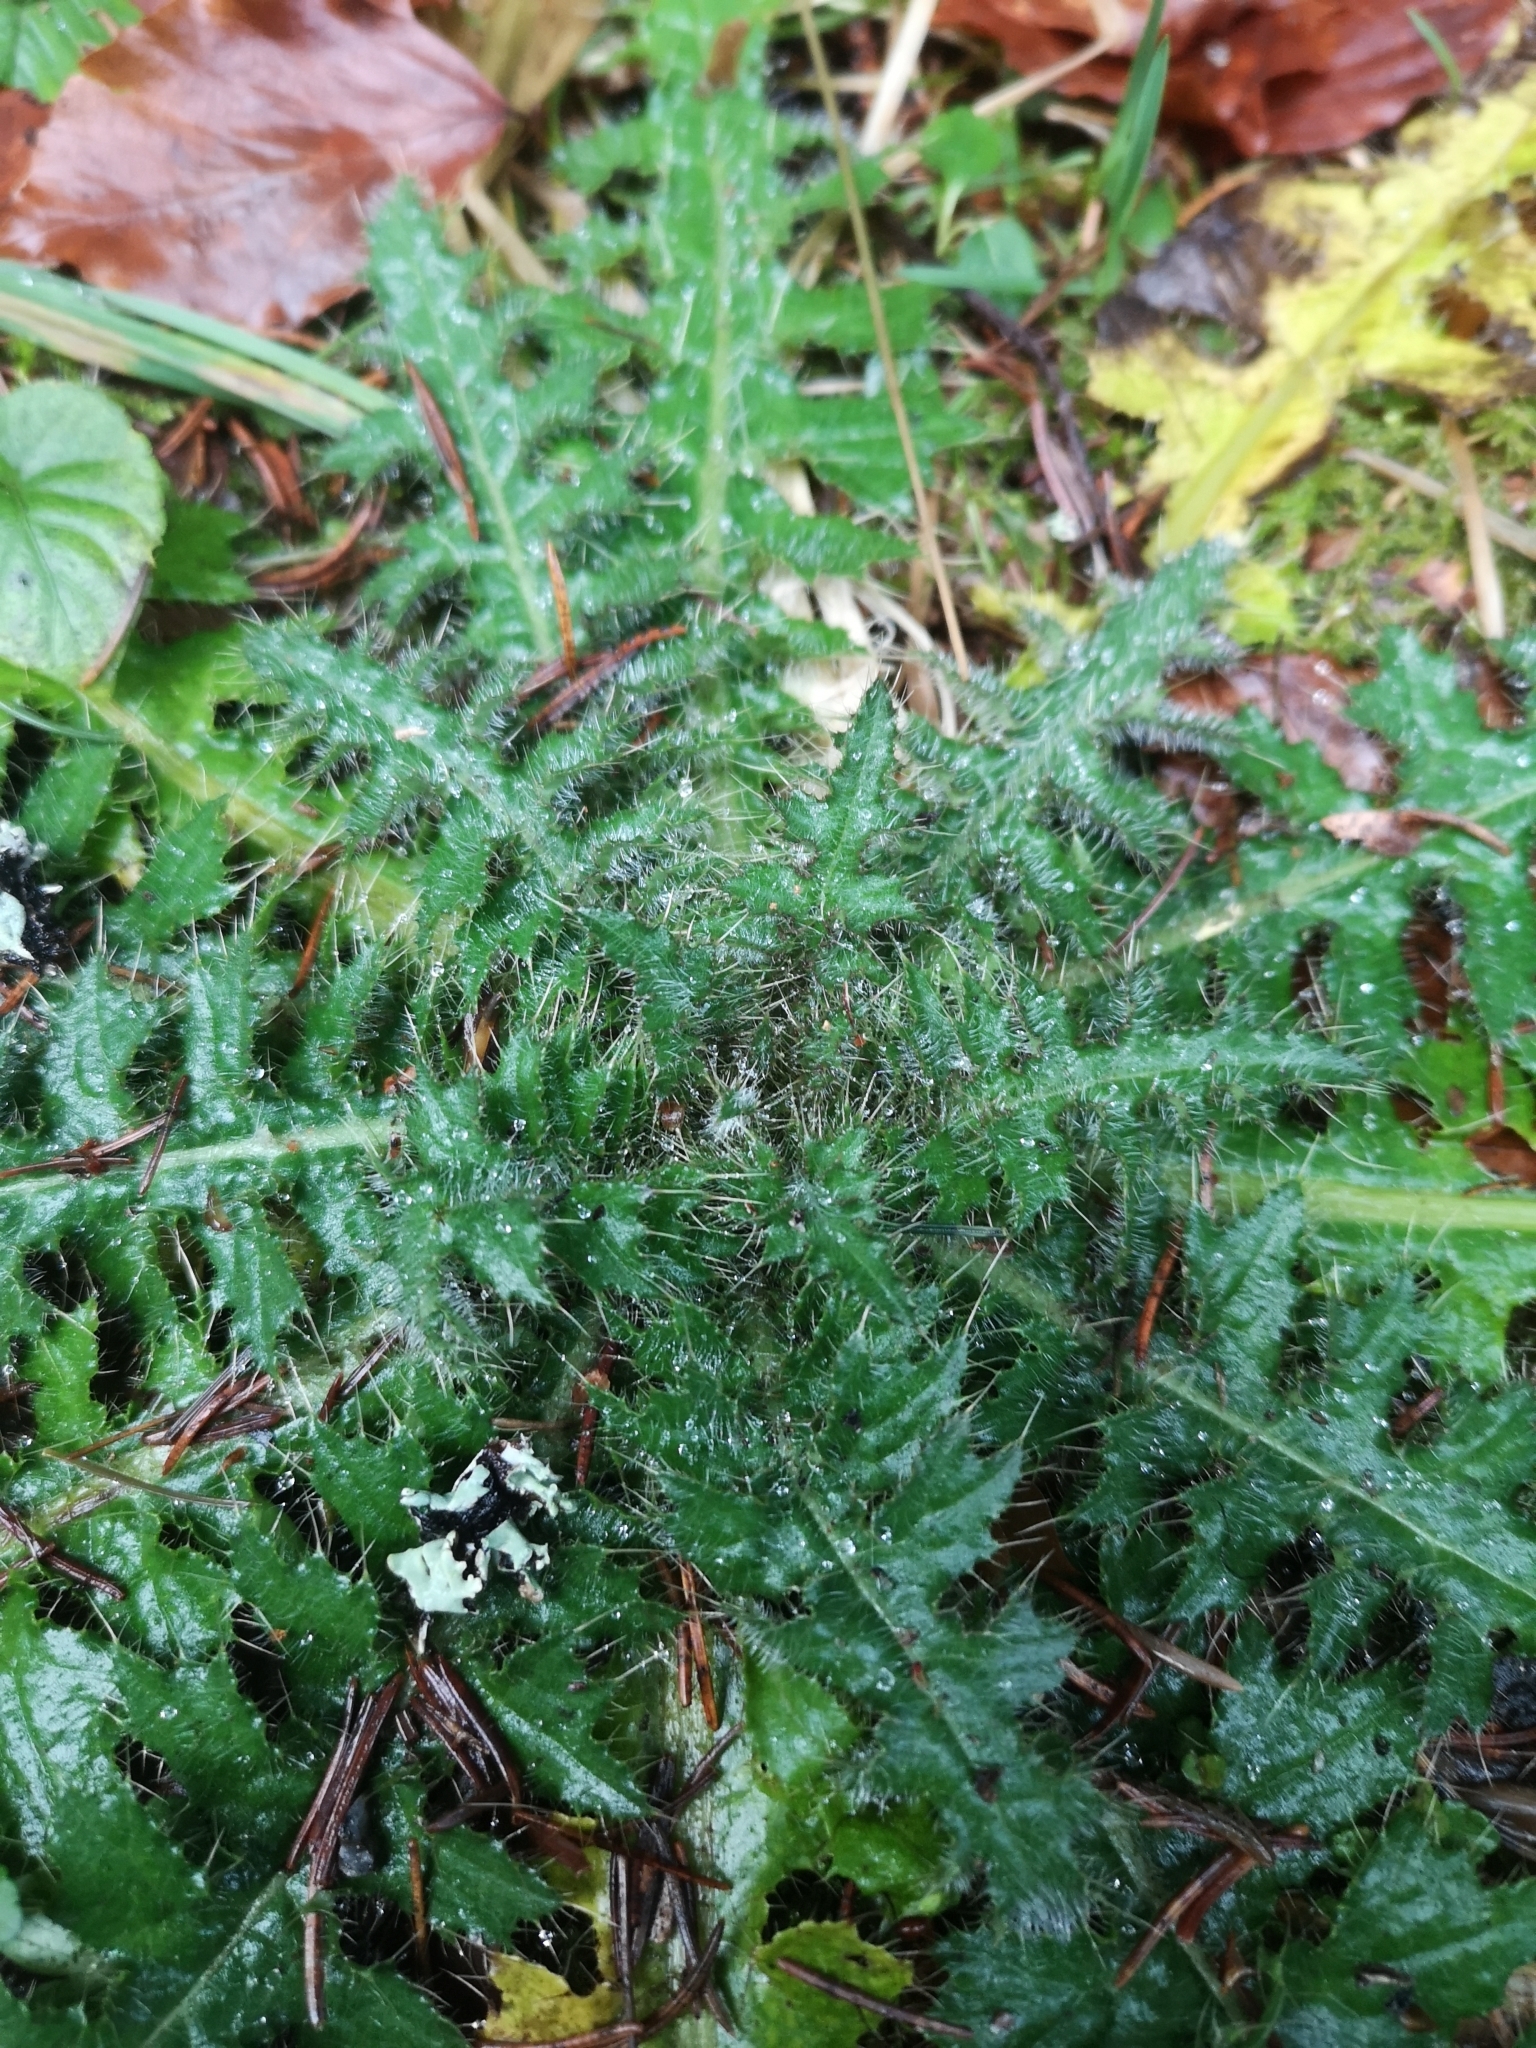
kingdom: Plantae
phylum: Tracheophyta
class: Magnoliopsida
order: Asterales
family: Asteraceae
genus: Cirsium
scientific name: Cirsium palustre
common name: Marsh thistle
